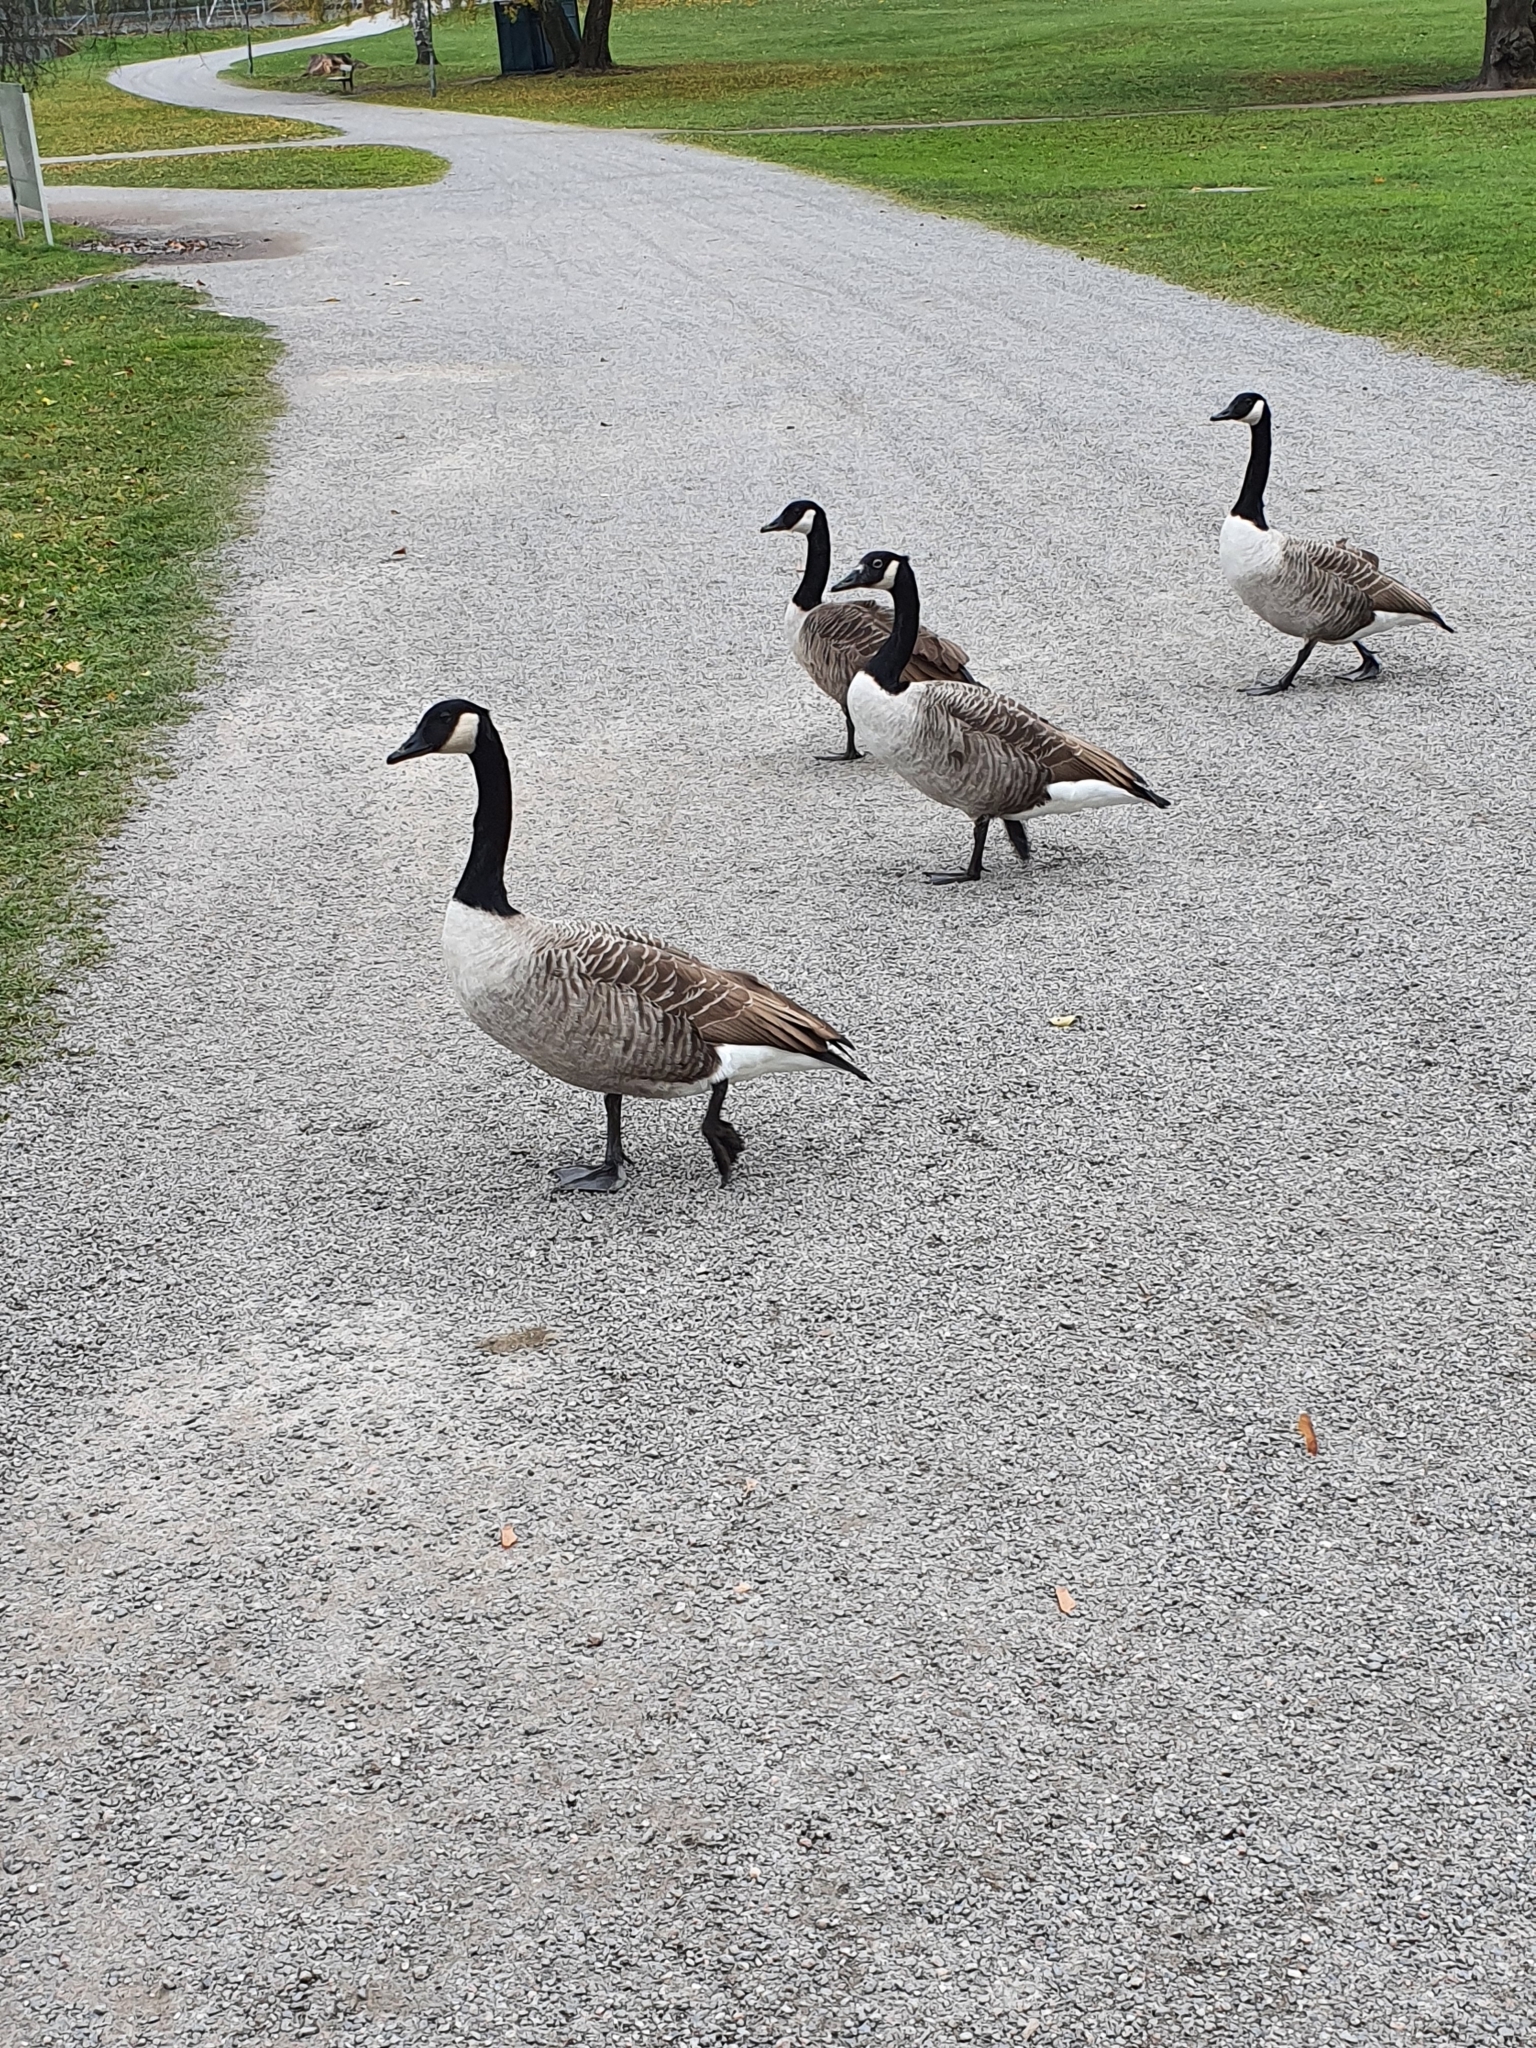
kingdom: Animalia
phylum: Chordata
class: Aves
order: Anseriformes
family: Anatidae
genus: Branta
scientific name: Branta canadensis
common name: Canada goose
